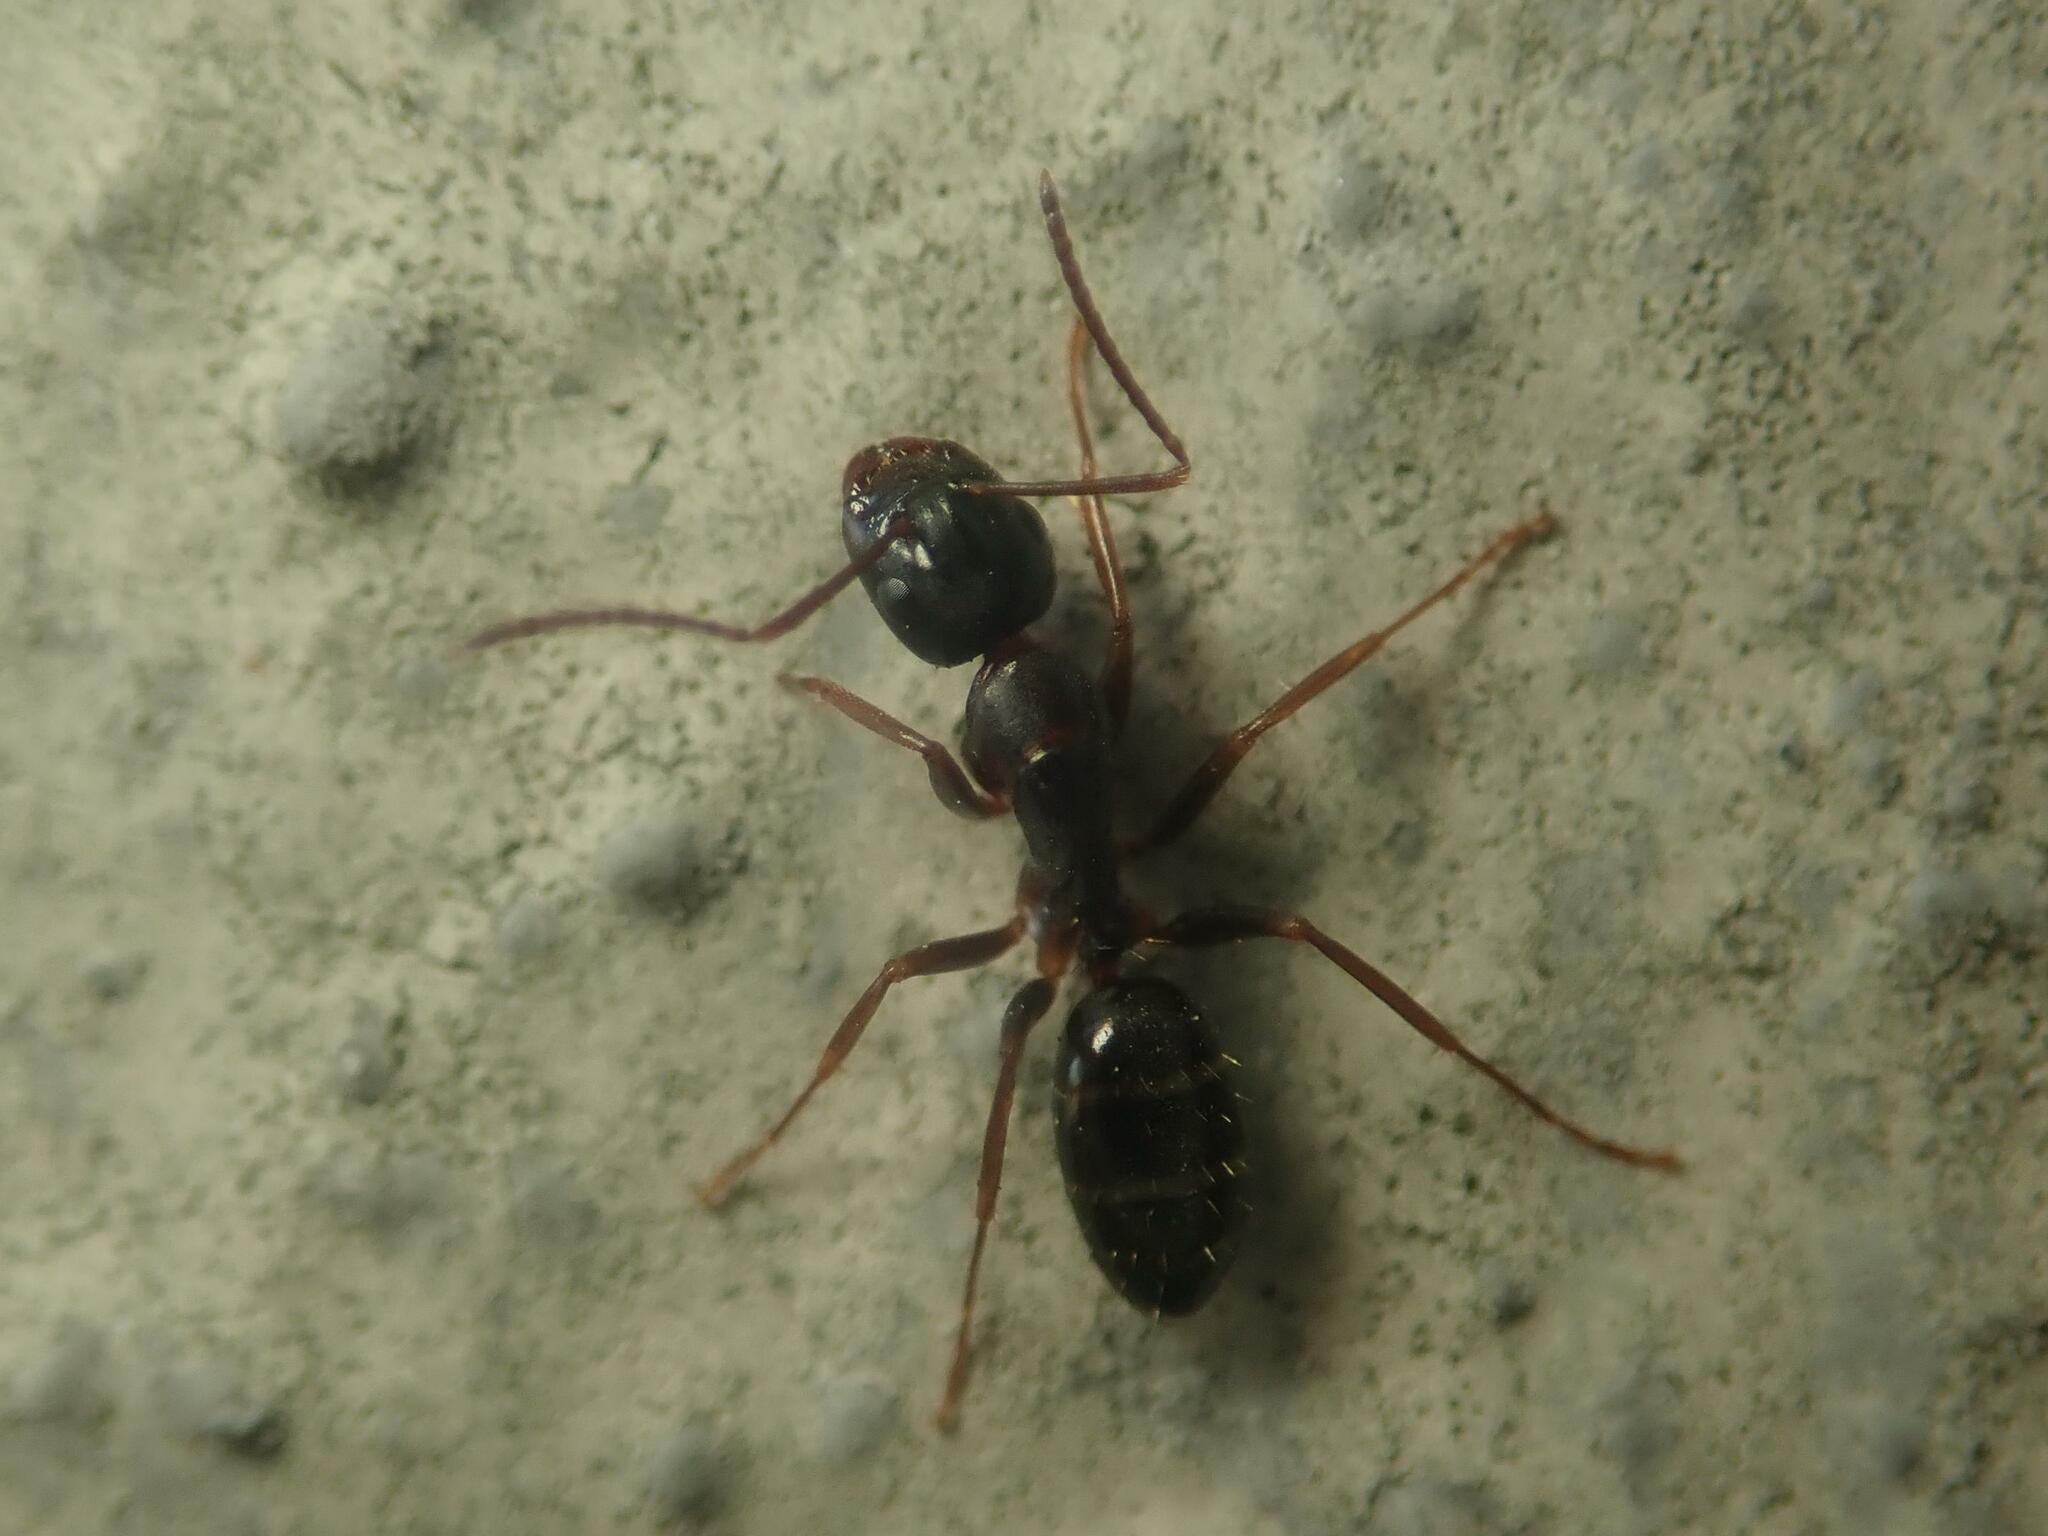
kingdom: Animalia
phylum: Arthropoda
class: Insecta
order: Hymenoptera
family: Formicidae
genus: Camponotus
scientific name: Camponotus fallax
